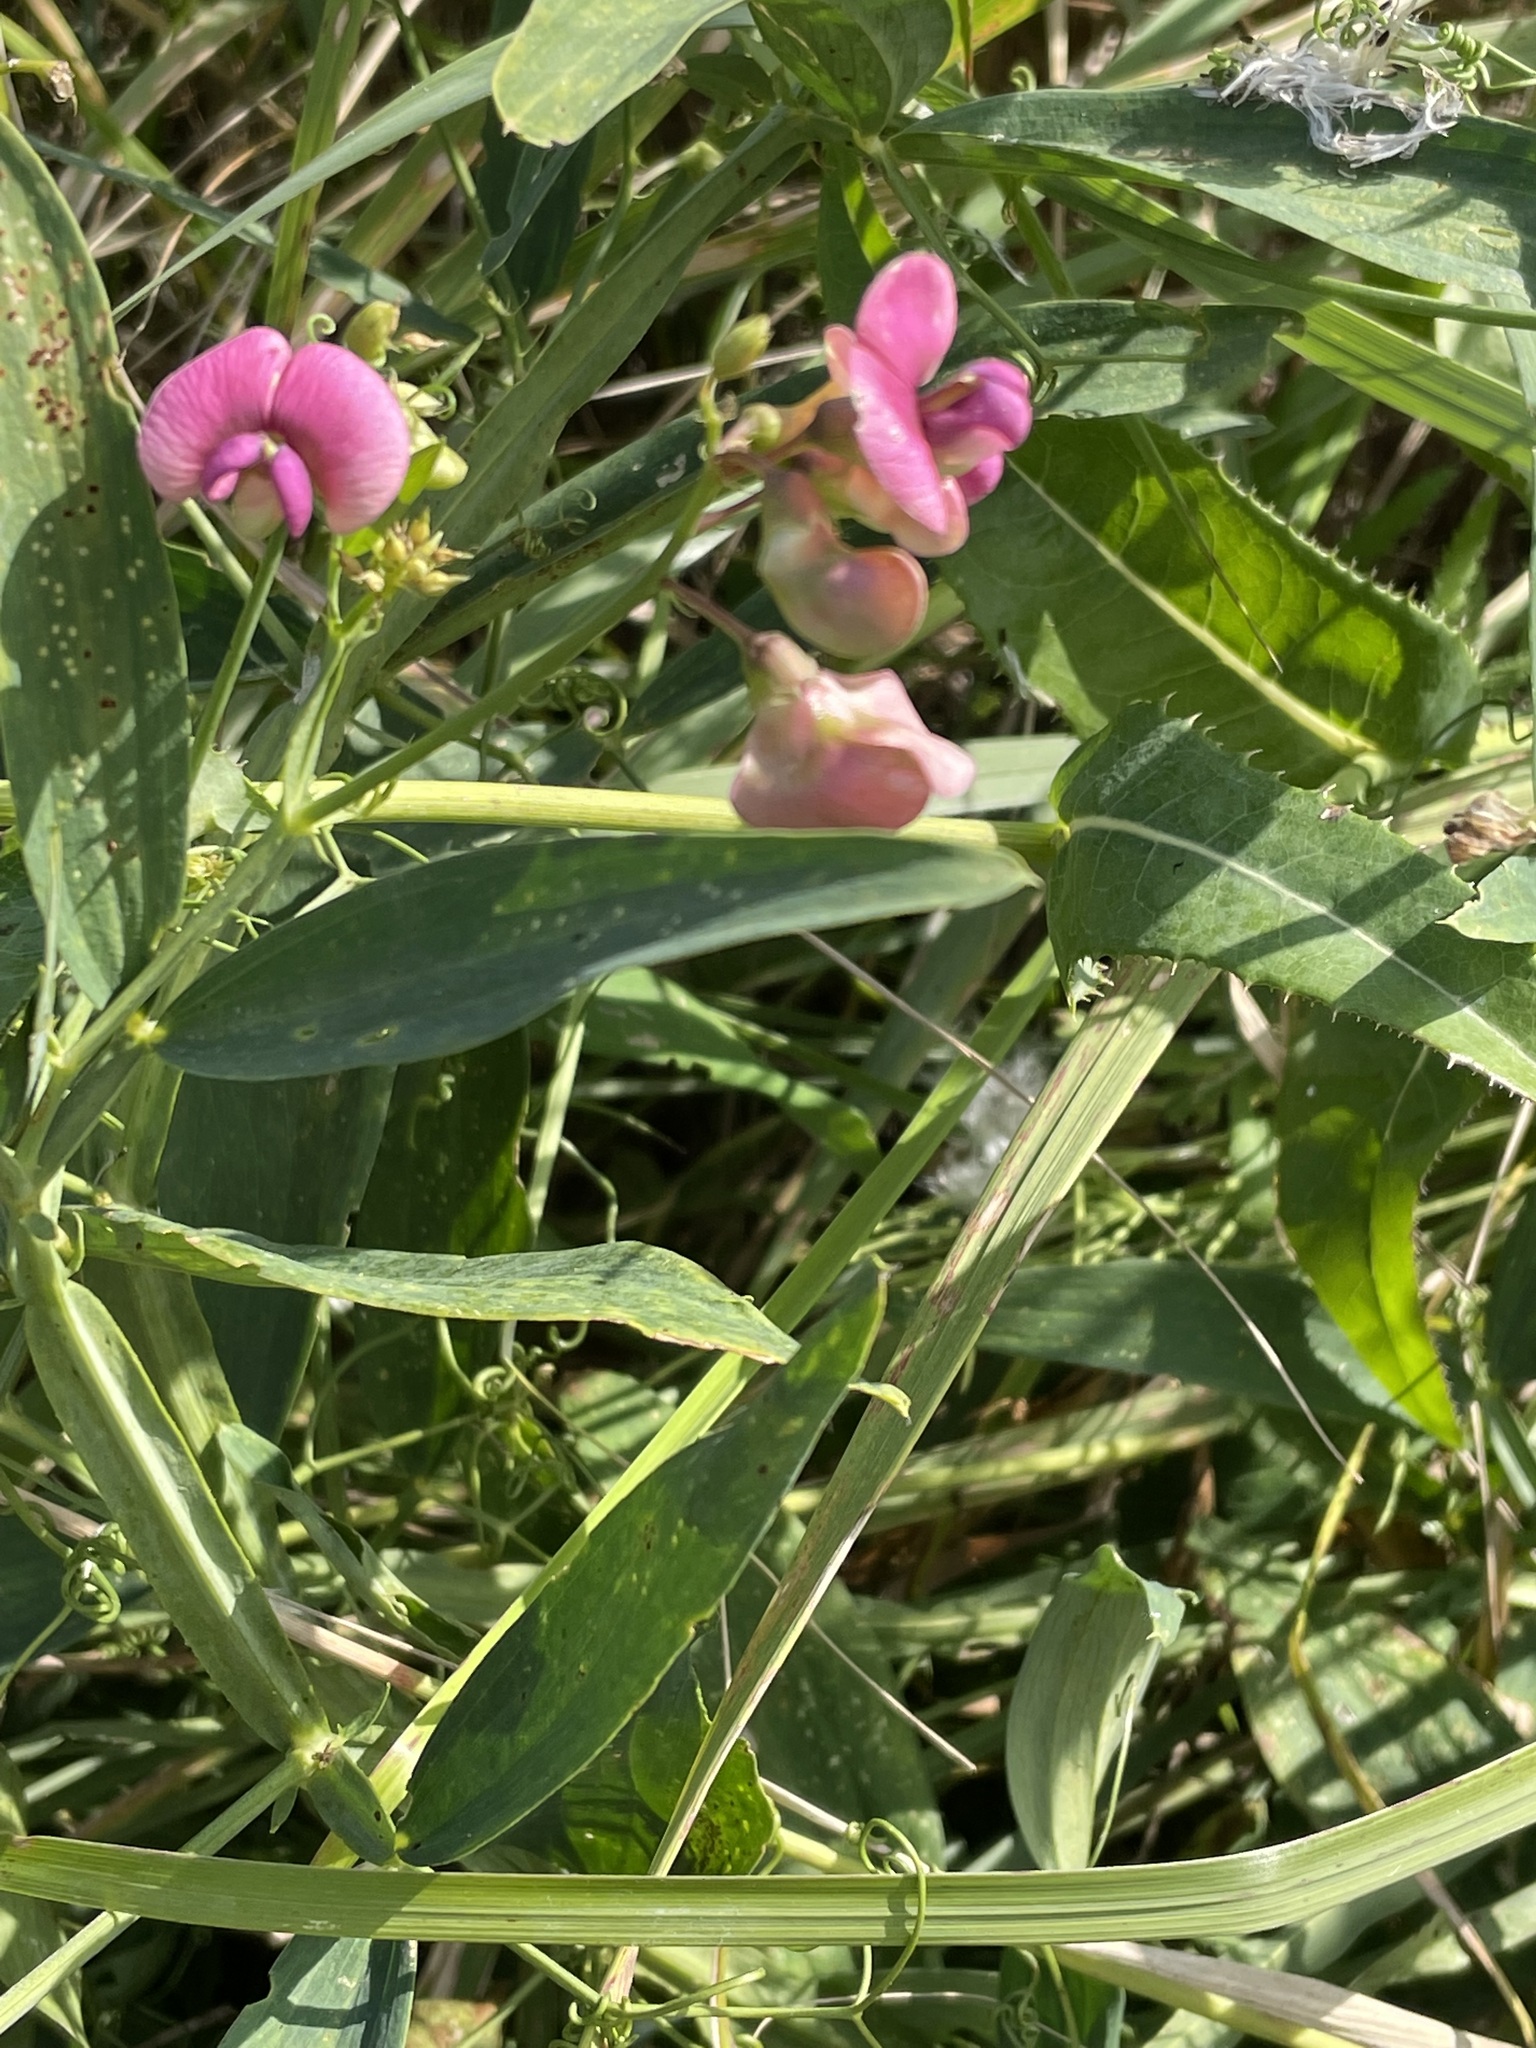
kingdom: Plantae
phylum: Tracheophyta
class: Magnoliopsida
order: Fabales
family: Fabaceae
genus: Lathyrus
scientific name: Lathyrus sylvestris
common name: Flat pea
